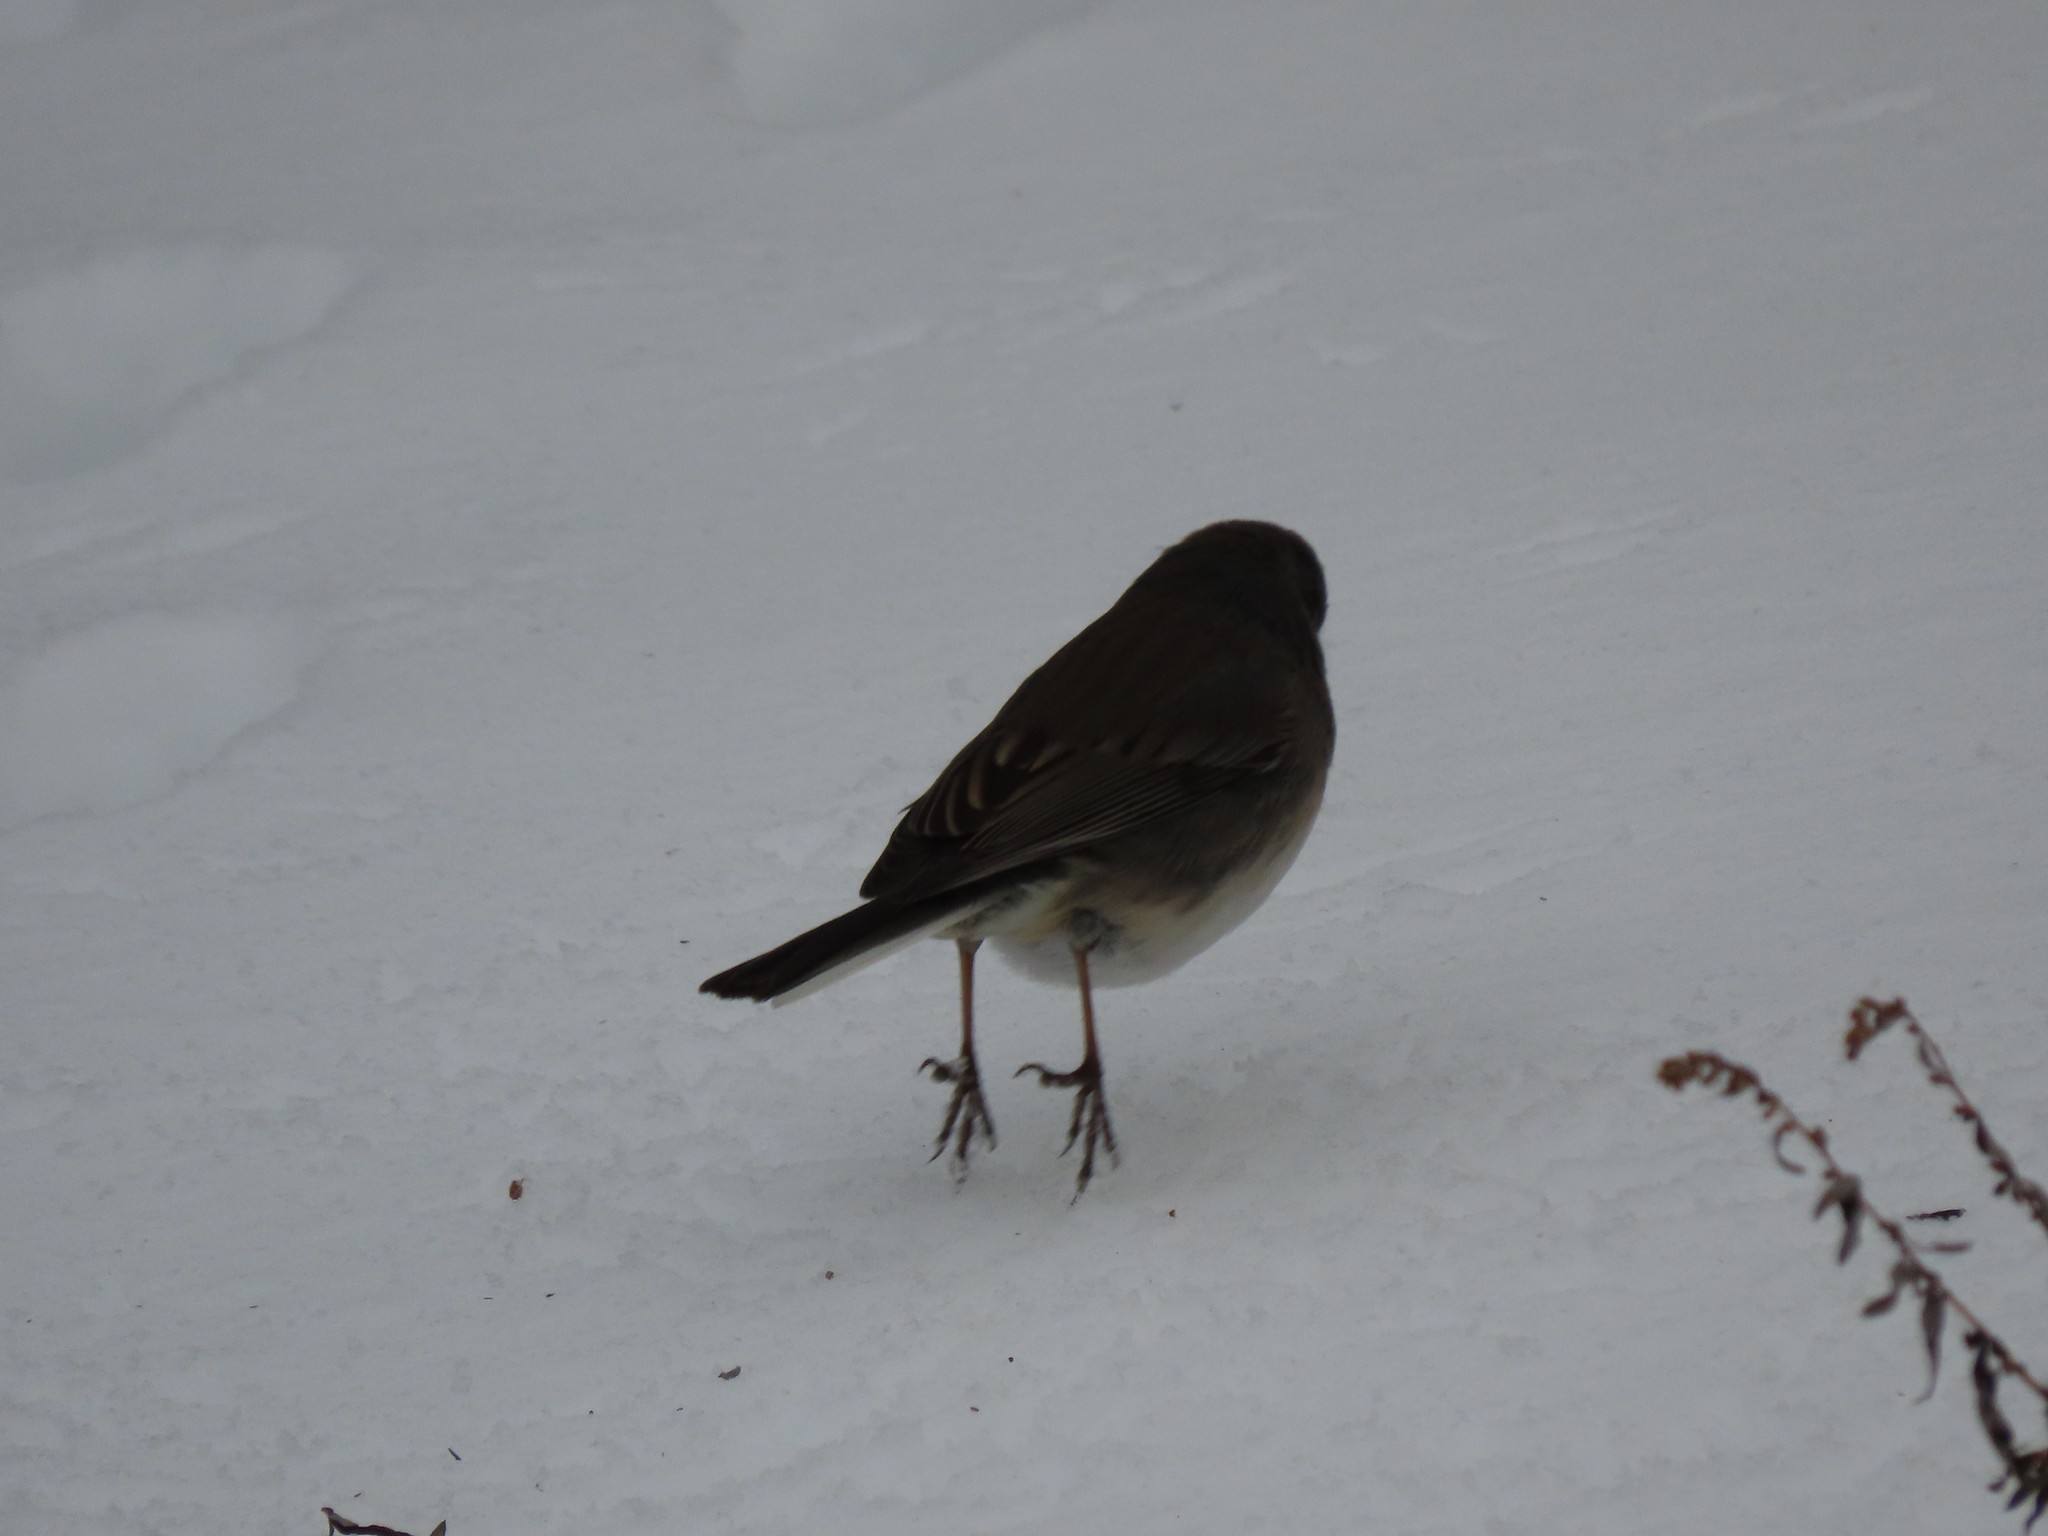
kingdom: Animalia
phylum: Chordata
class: Aves
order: Passeriformes
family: Passerellidae
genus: Junco
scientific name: Junco hyemalis
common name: Dark-eyed junco
